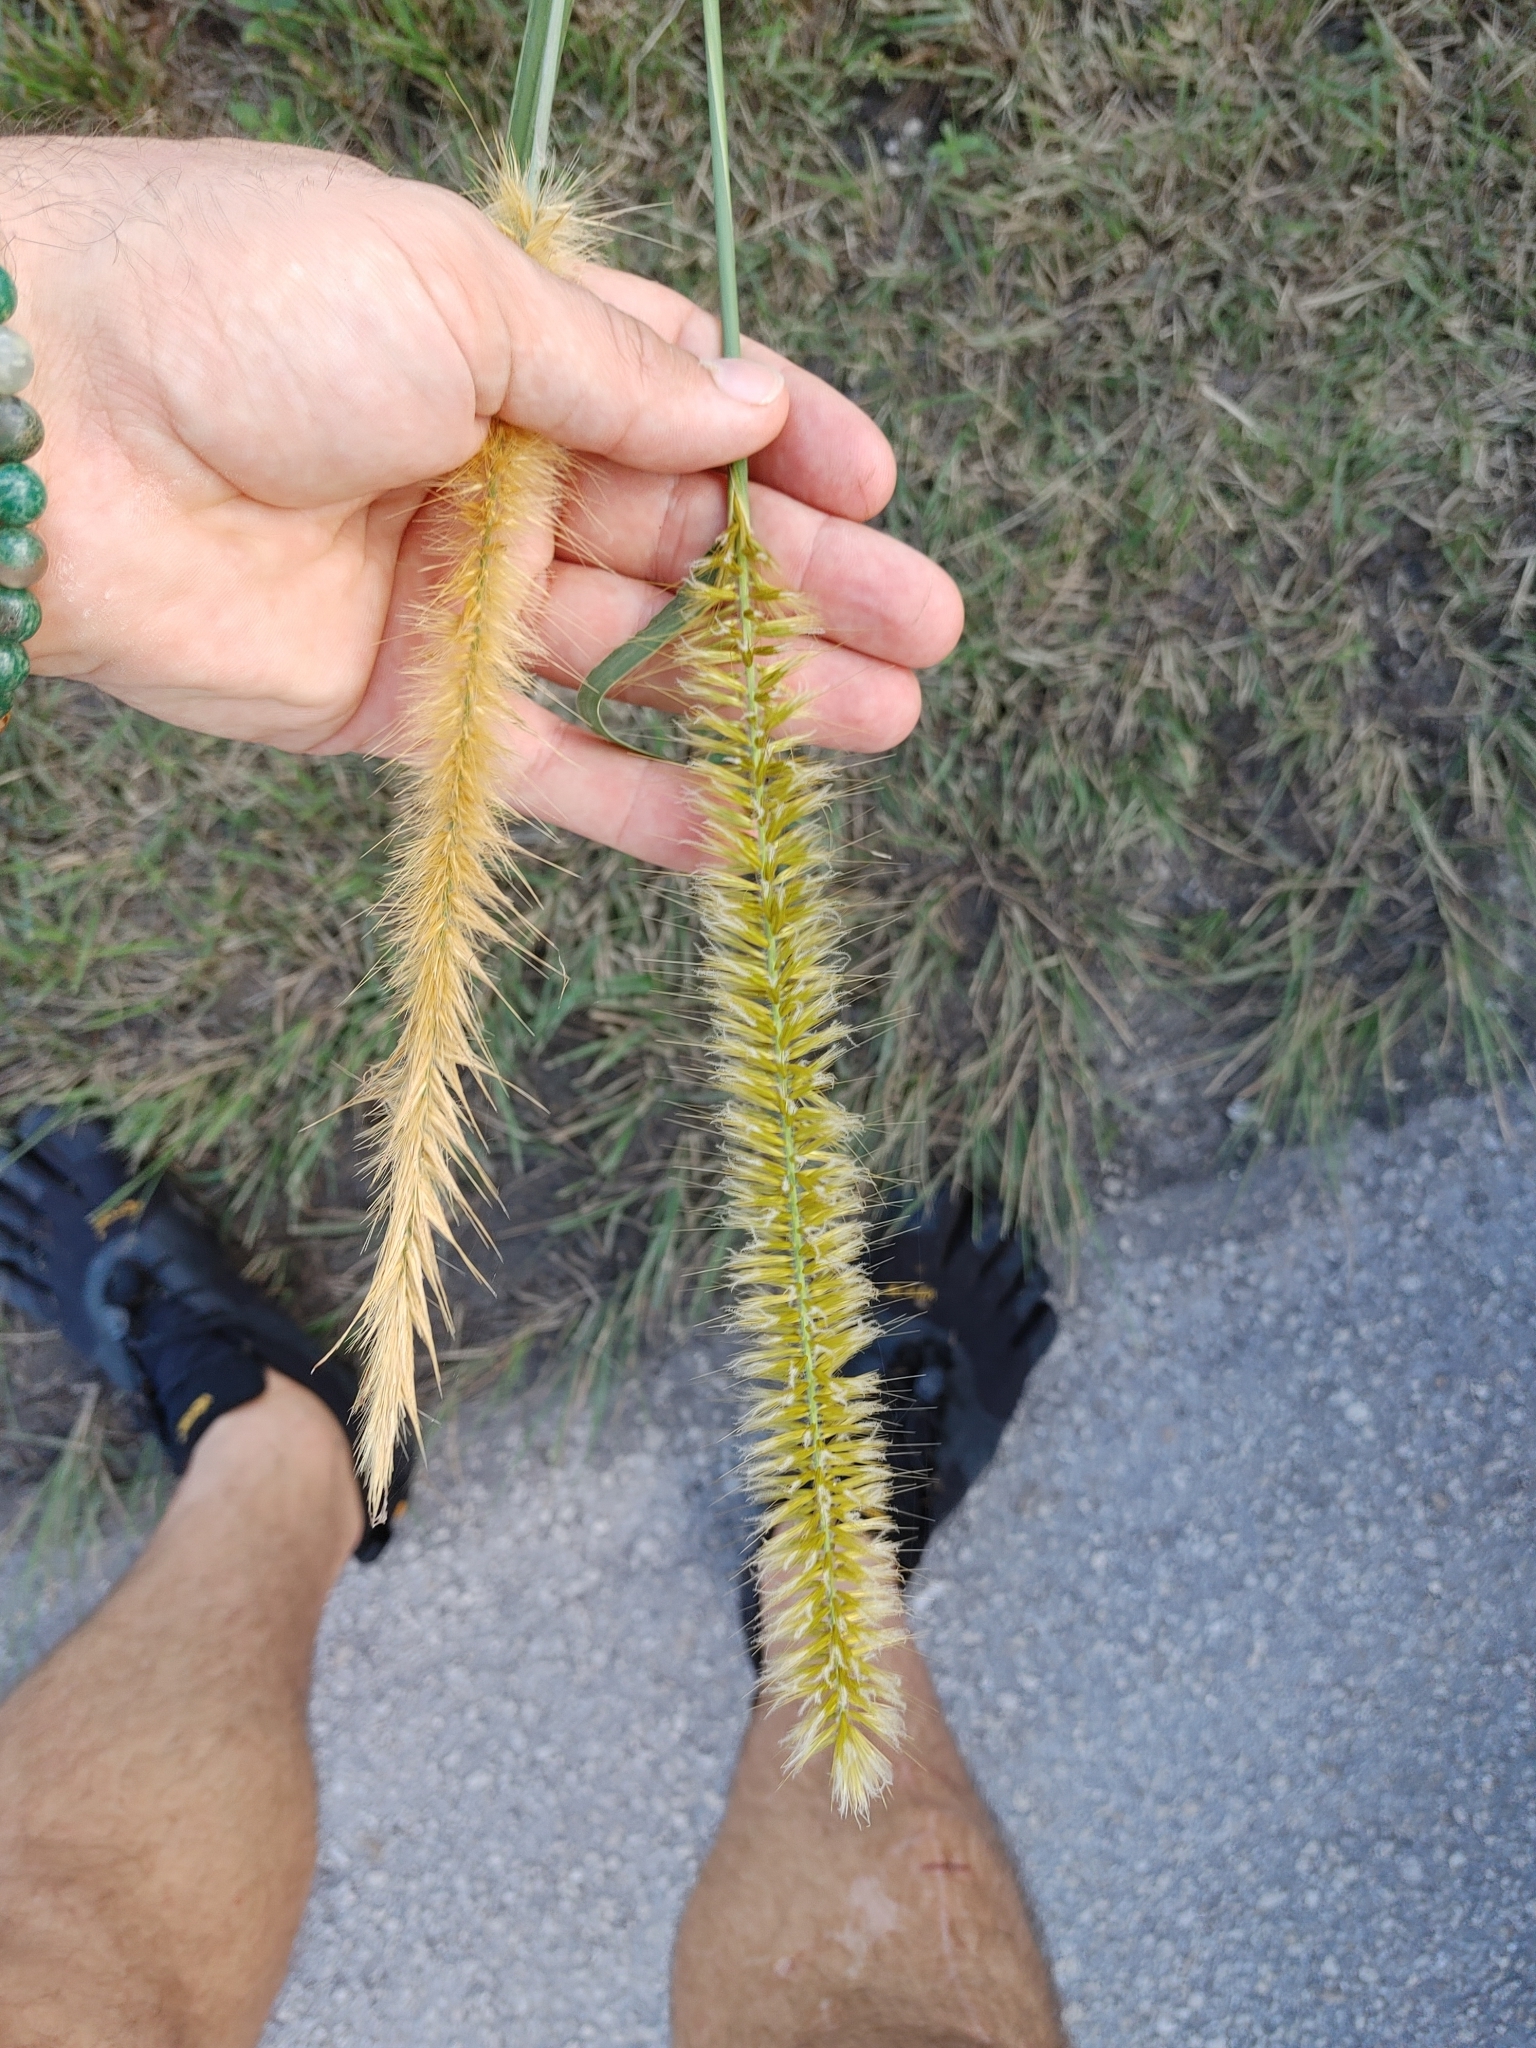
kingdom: Plantae
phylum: Tracheophyta
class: Liliopsida
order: Poales
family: Poaceae
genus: Cenchrus
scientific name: Cenchrus purpureus
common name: Elephant grass
